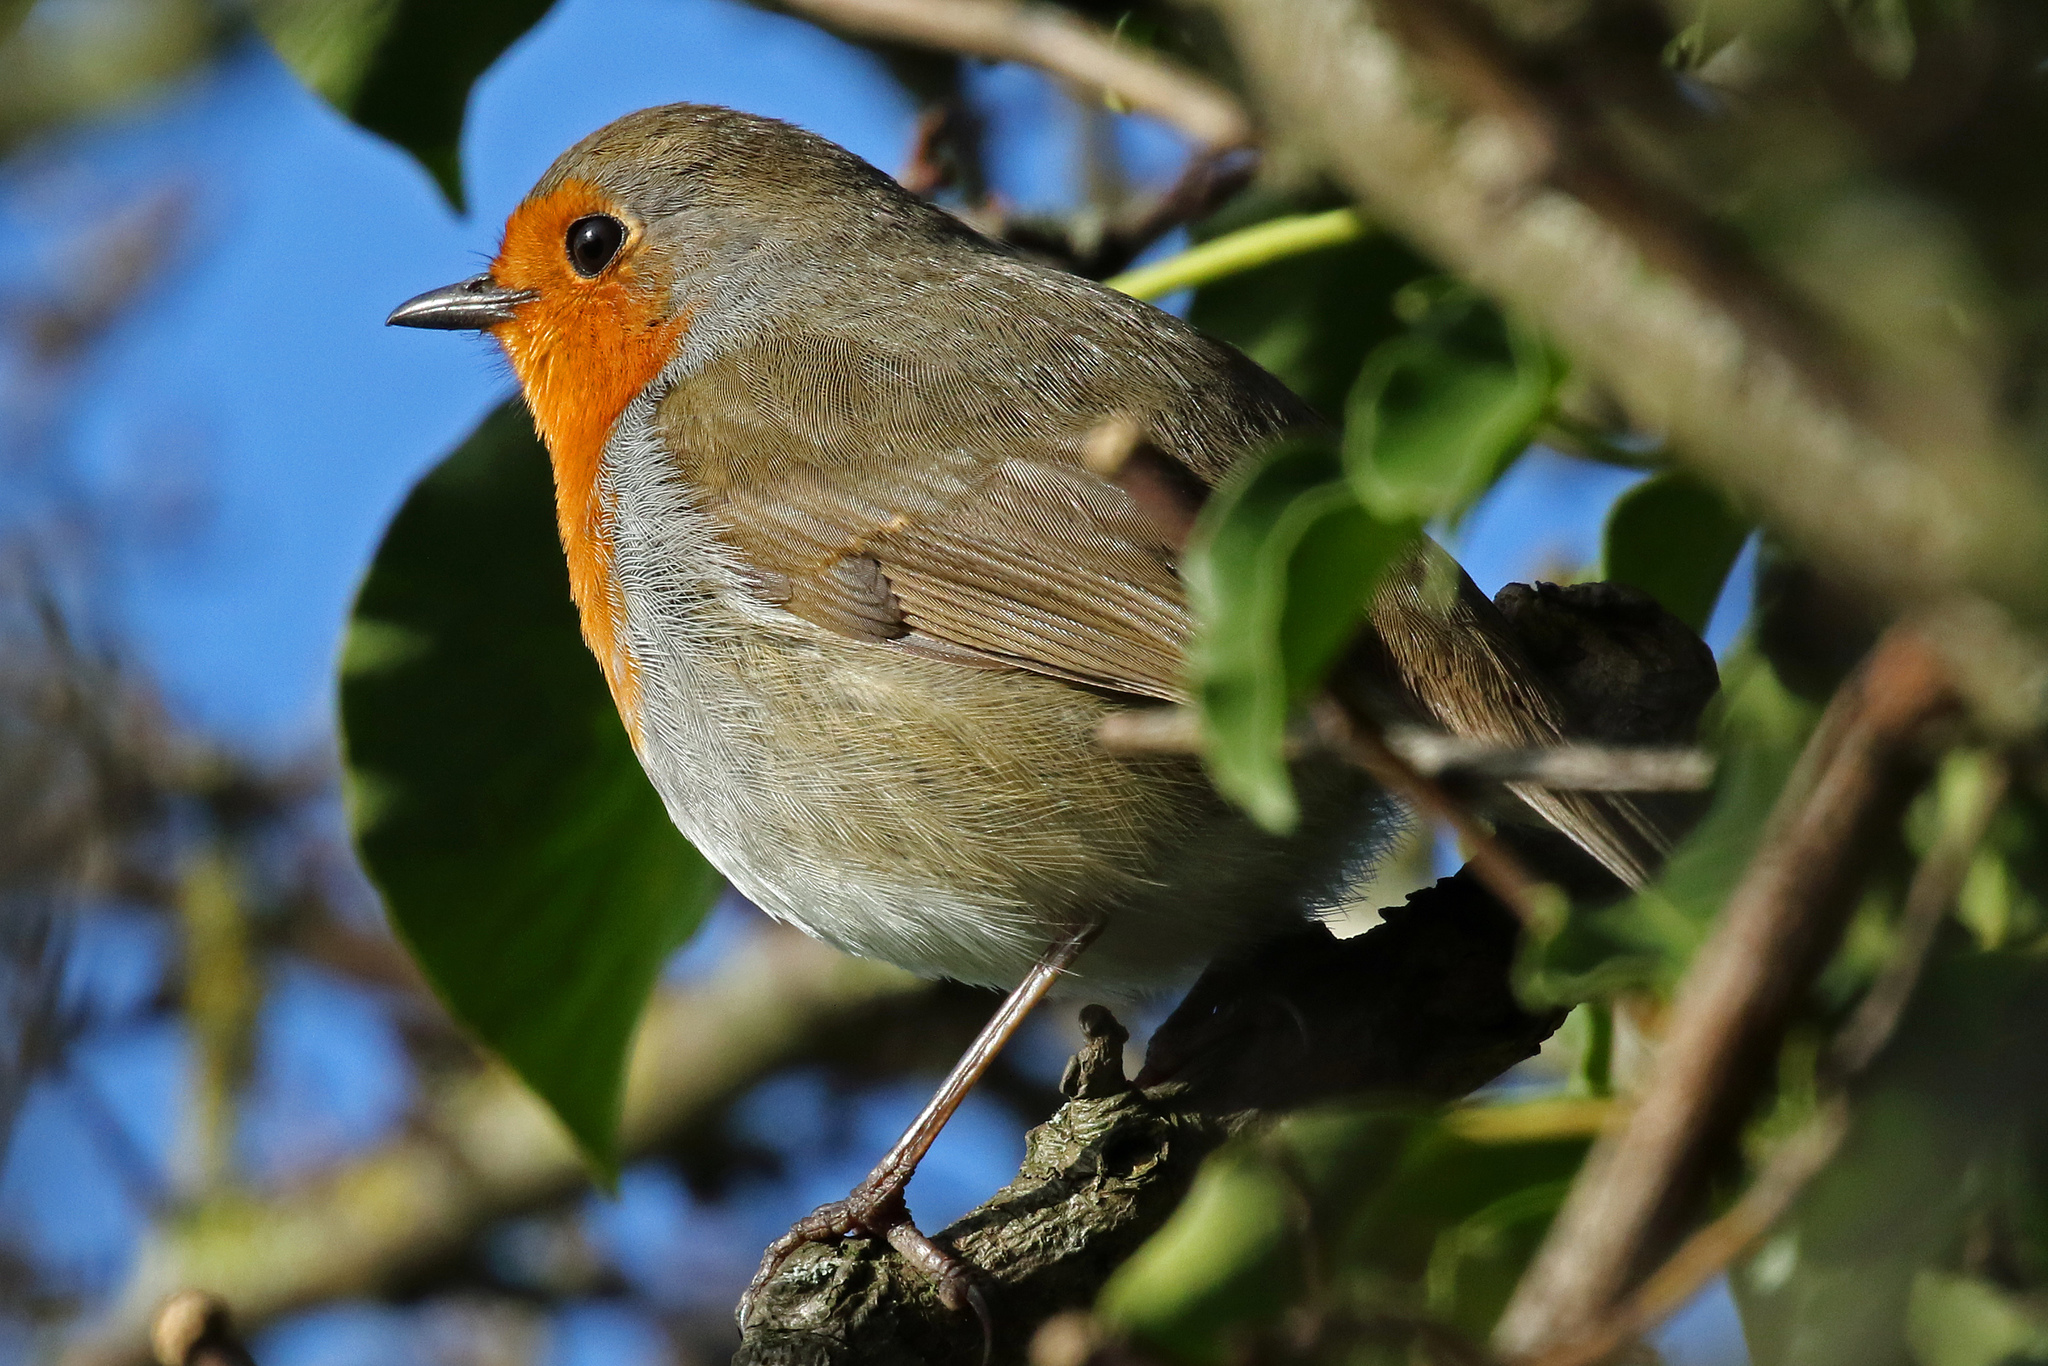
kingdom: Animalia
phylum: Chordata
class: Aves
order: Passeriformes
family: Muscicapidae
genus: Erithacus
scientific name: Erithacus rubecula
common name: European robin
